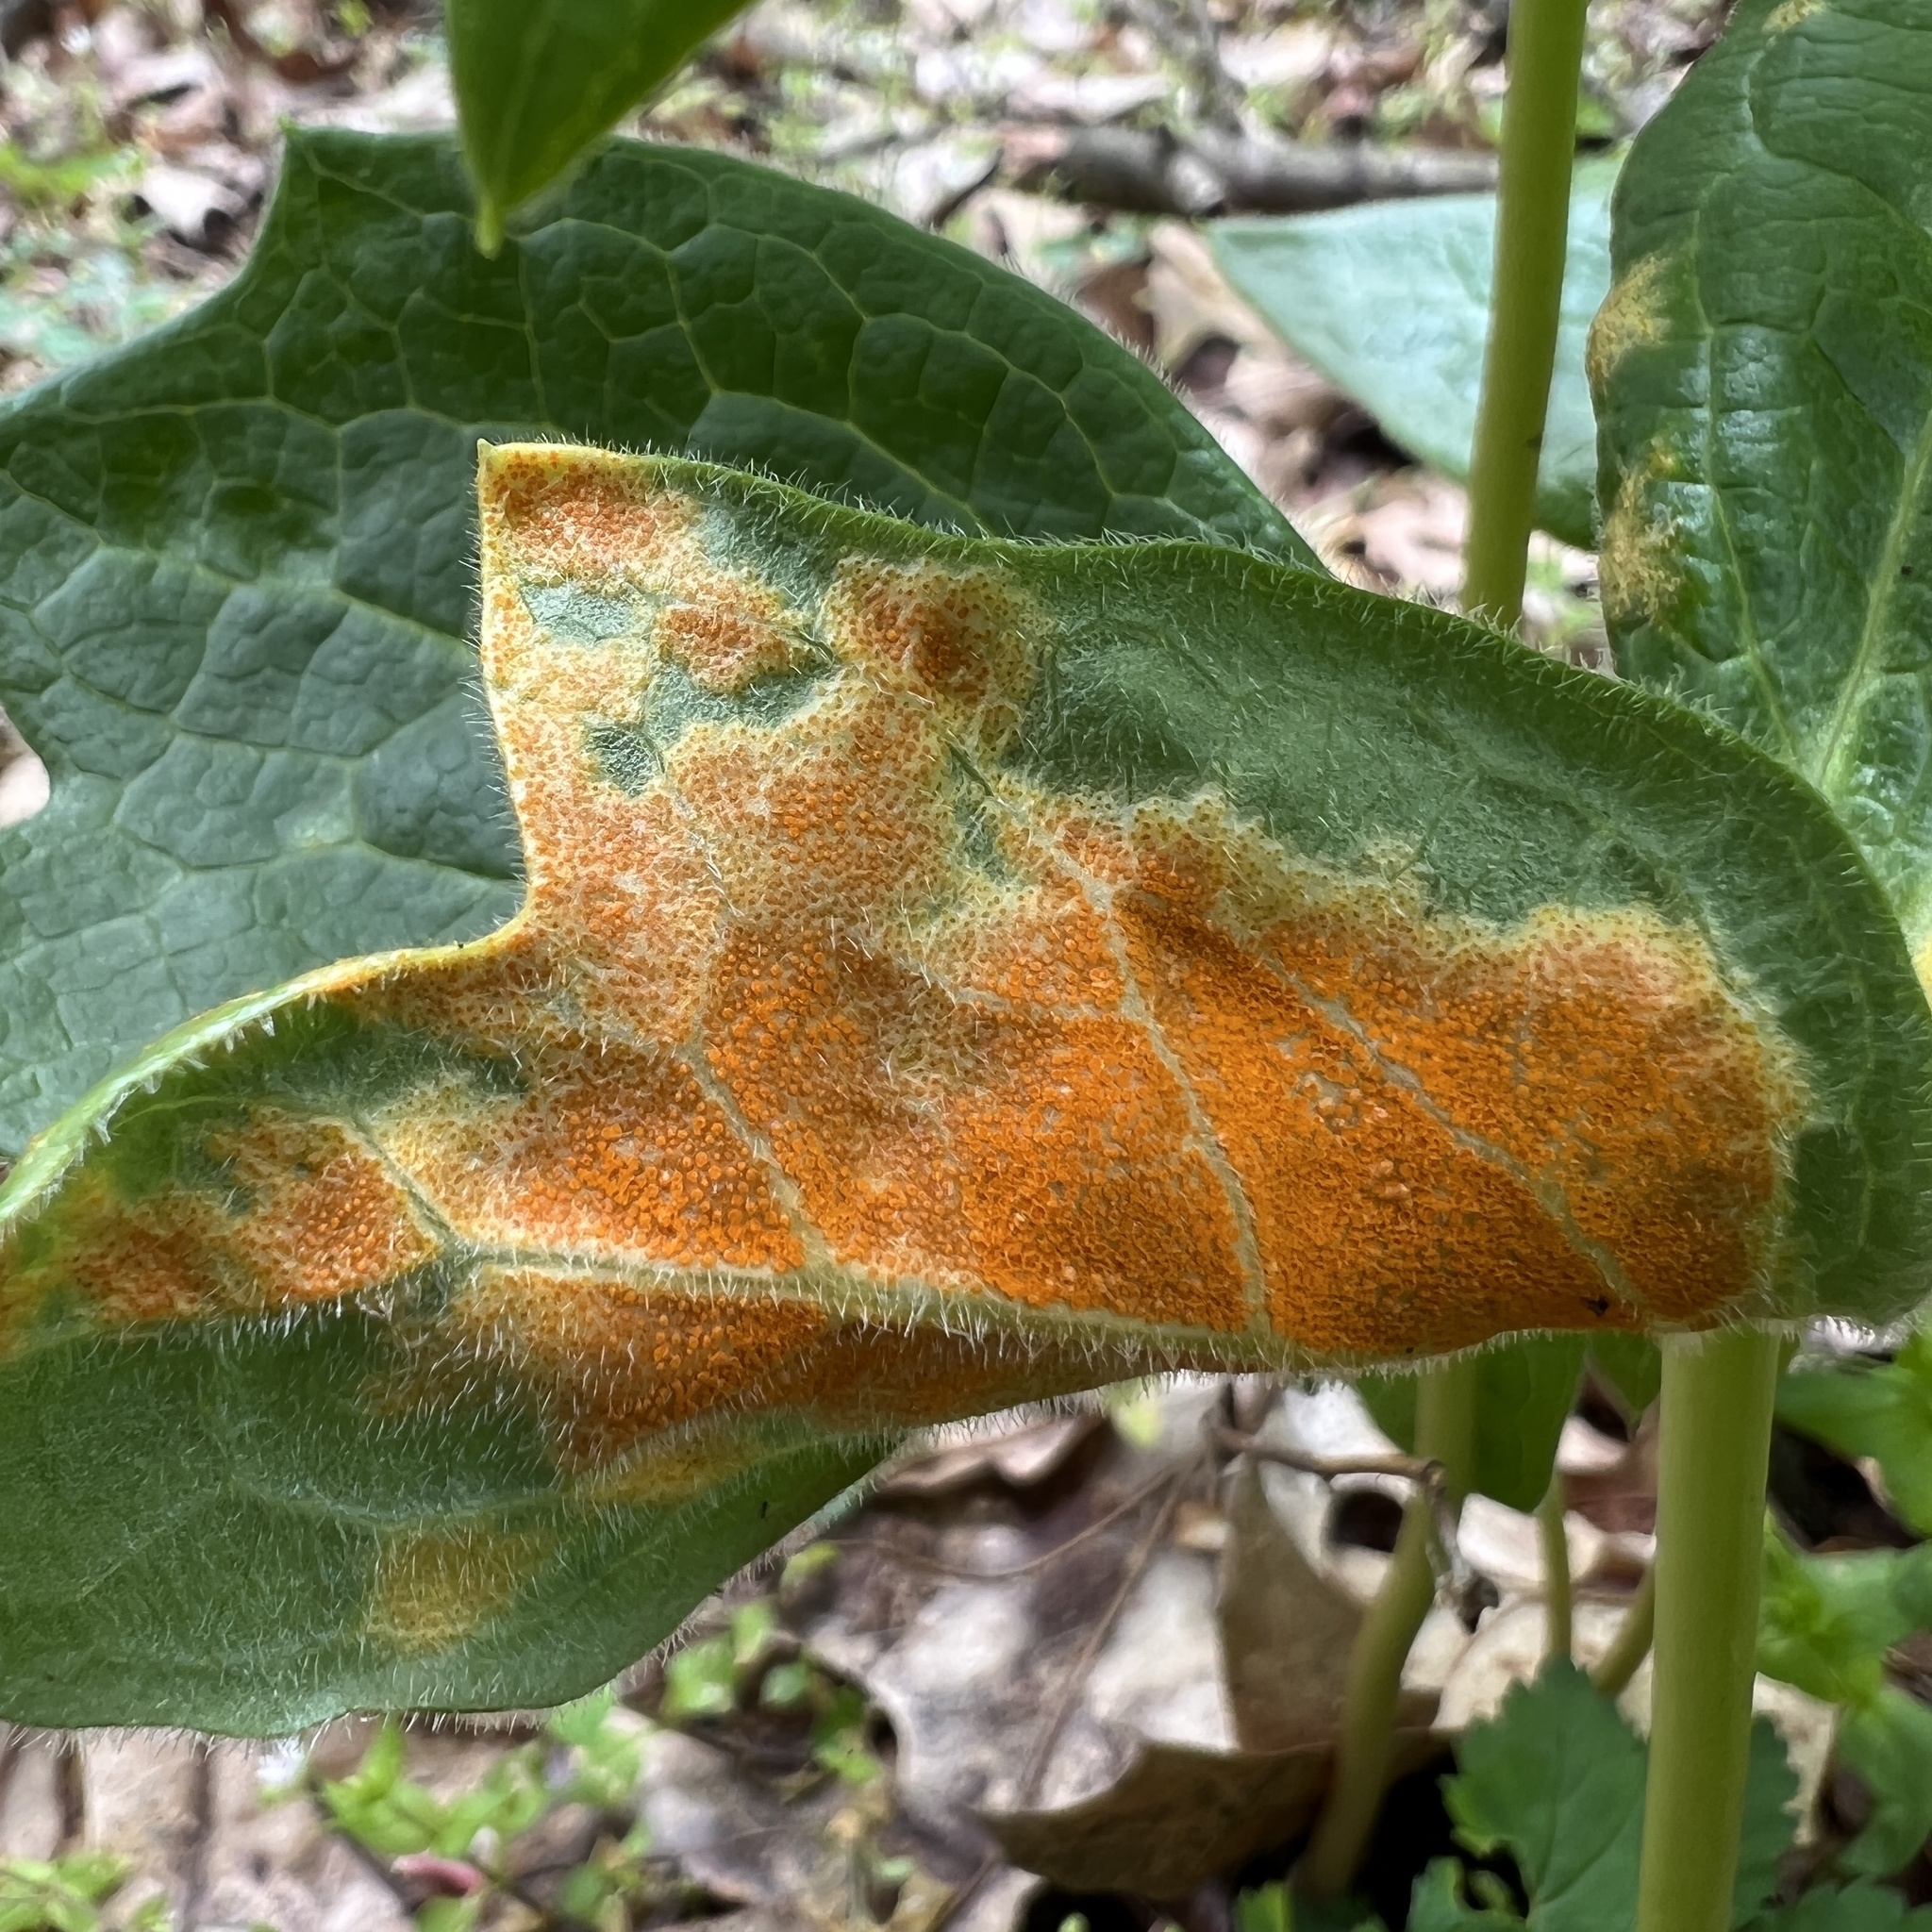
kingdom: Fungi
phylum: Basidiomycota
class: Pucciniomycetes
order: Pucciniales
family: Pucciniaceae
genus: Puccinia
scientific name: Puccinia podophylli
